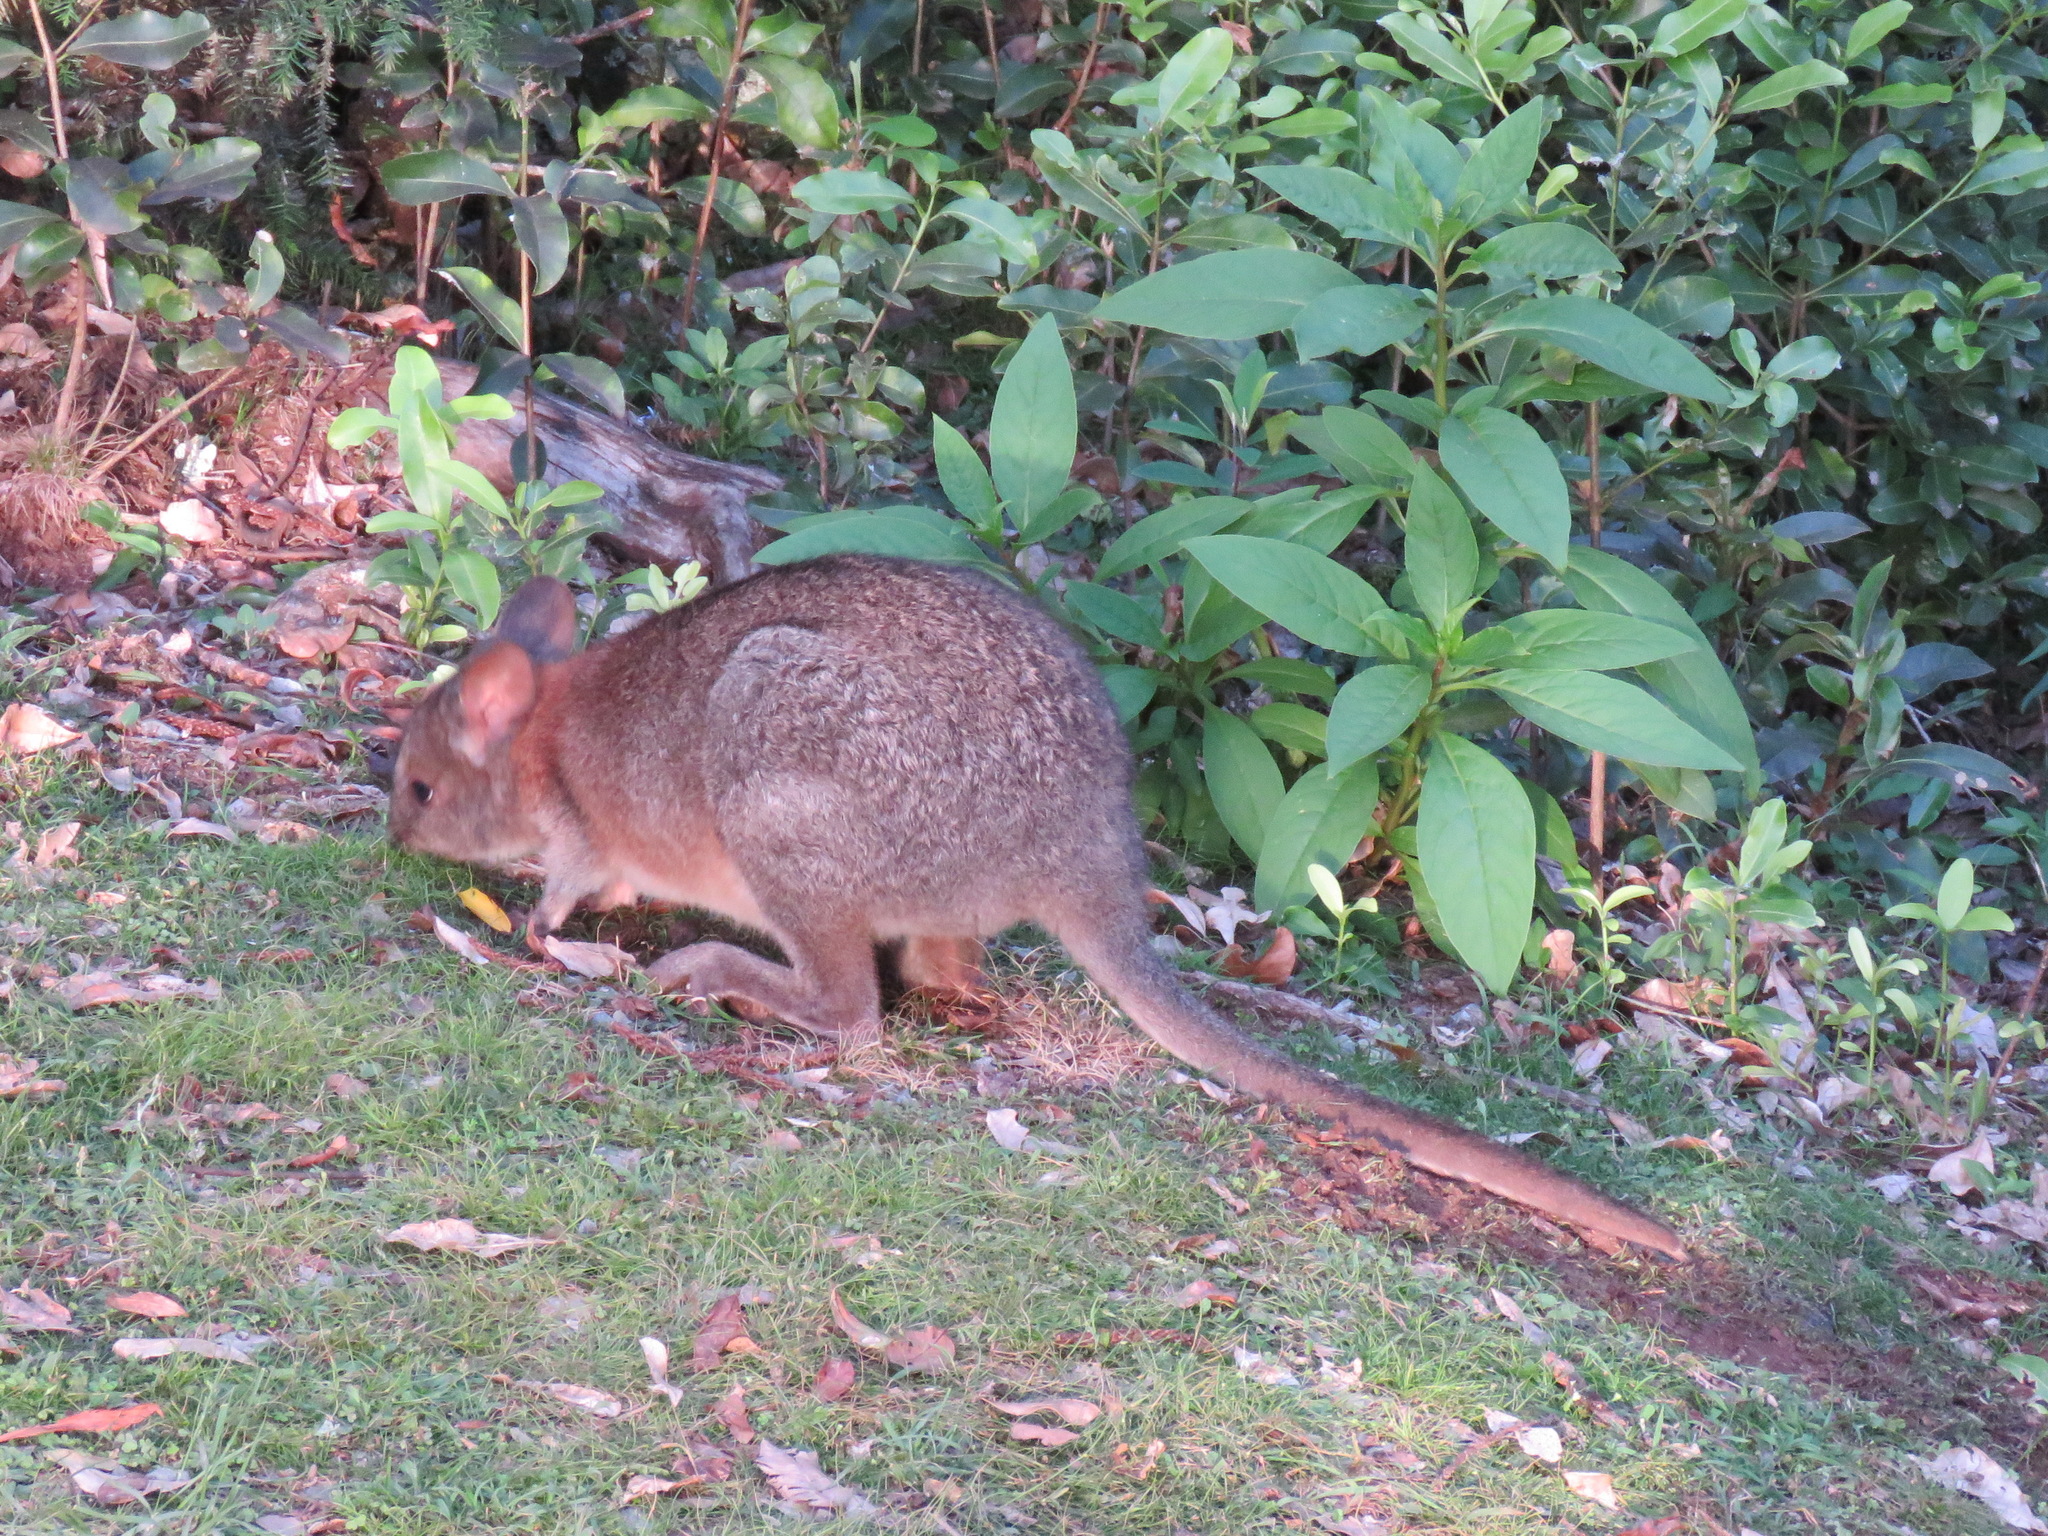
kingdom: Animalia
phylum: Chordata
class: Mammalia
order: Diprotodontia
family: Macropodidae
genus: Thylogale
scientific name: Thylogale thetis
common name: Red-necked pademelon
